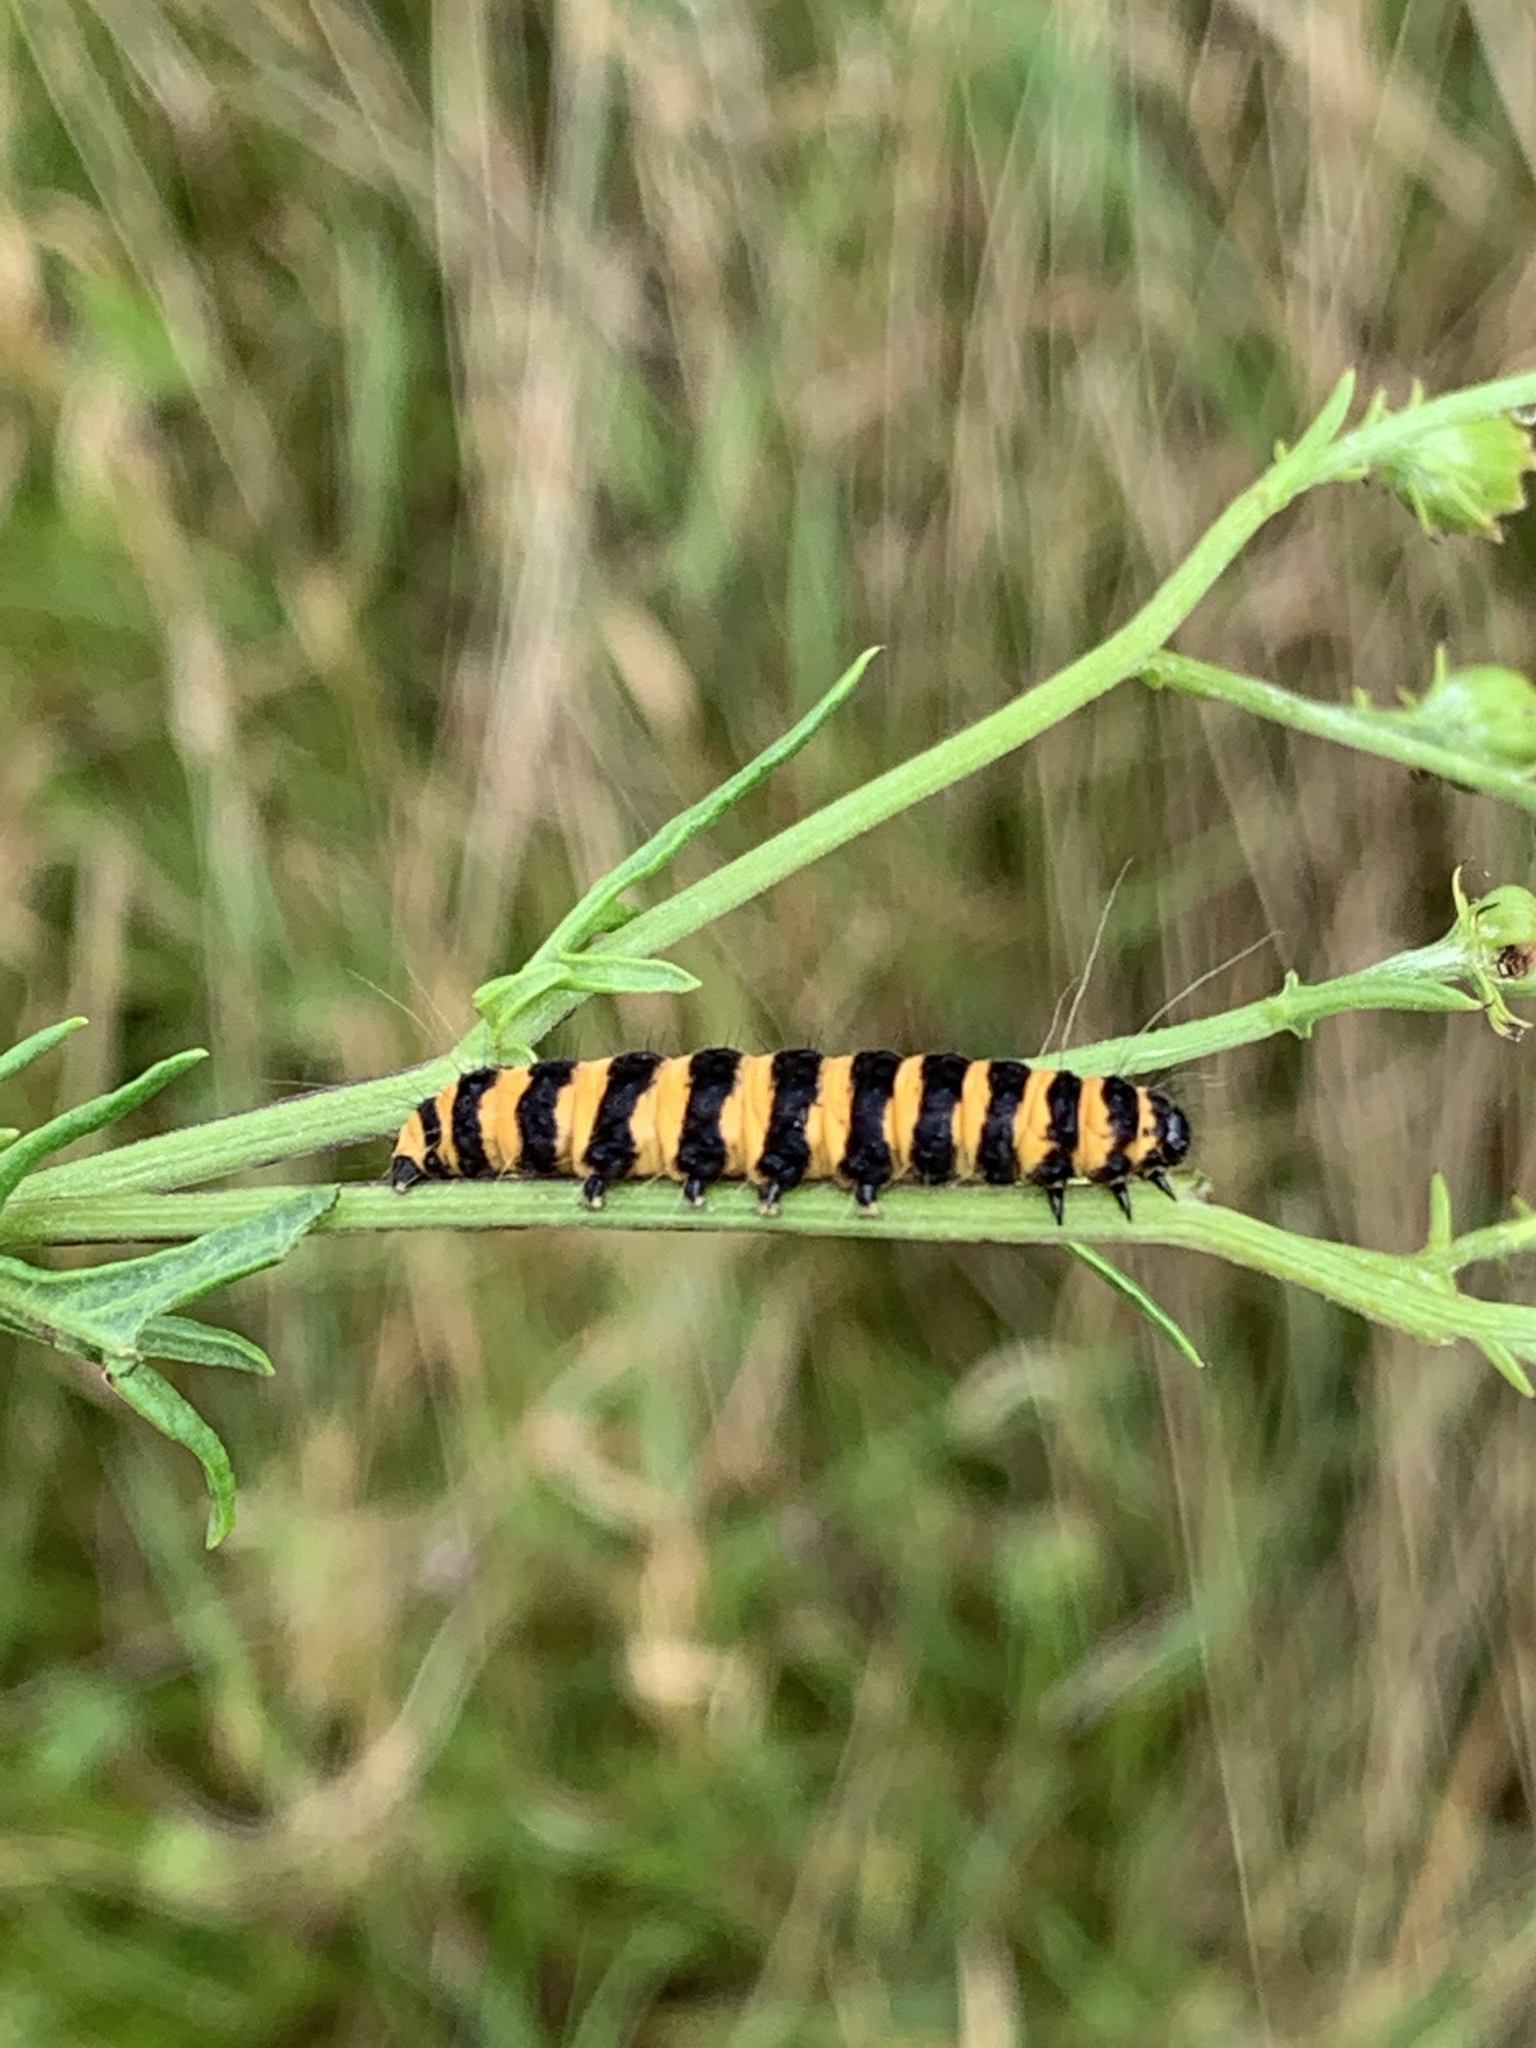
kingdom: Animalia
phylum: Arthropoda
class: Insecta
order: Lepidoptera
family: Erebidae
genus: Tyria
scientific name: Tyria jacobaeae
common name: Cinnabar
